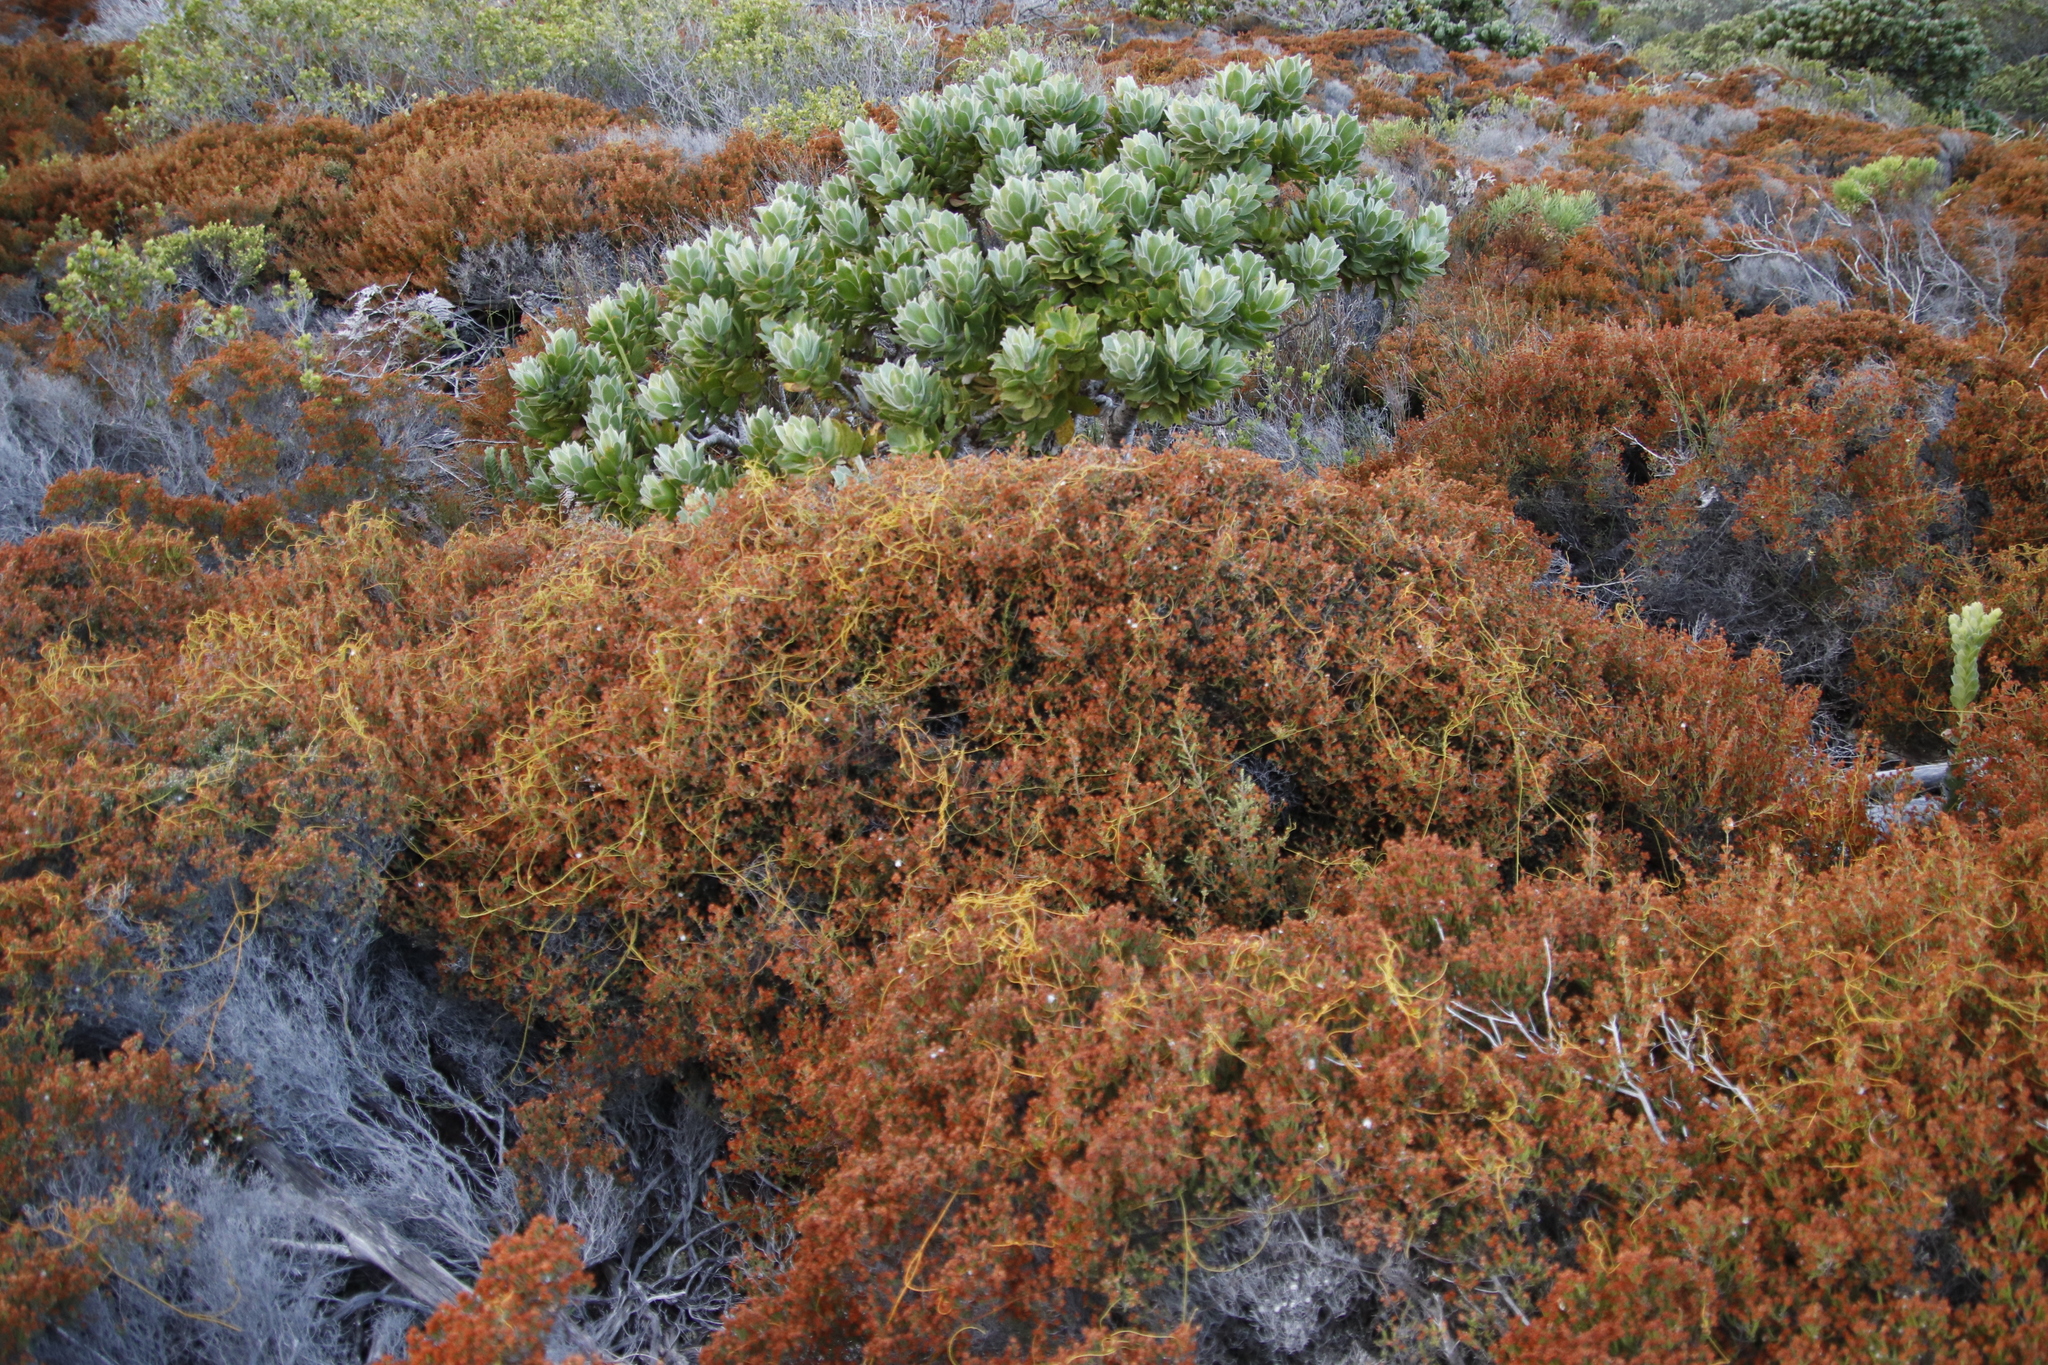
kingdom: Plantae
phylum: Tracheophyta
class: Magnoliopsida
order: Laurales
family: Lauraceae
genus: Cassytha
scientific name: Cassytha ciliolata
